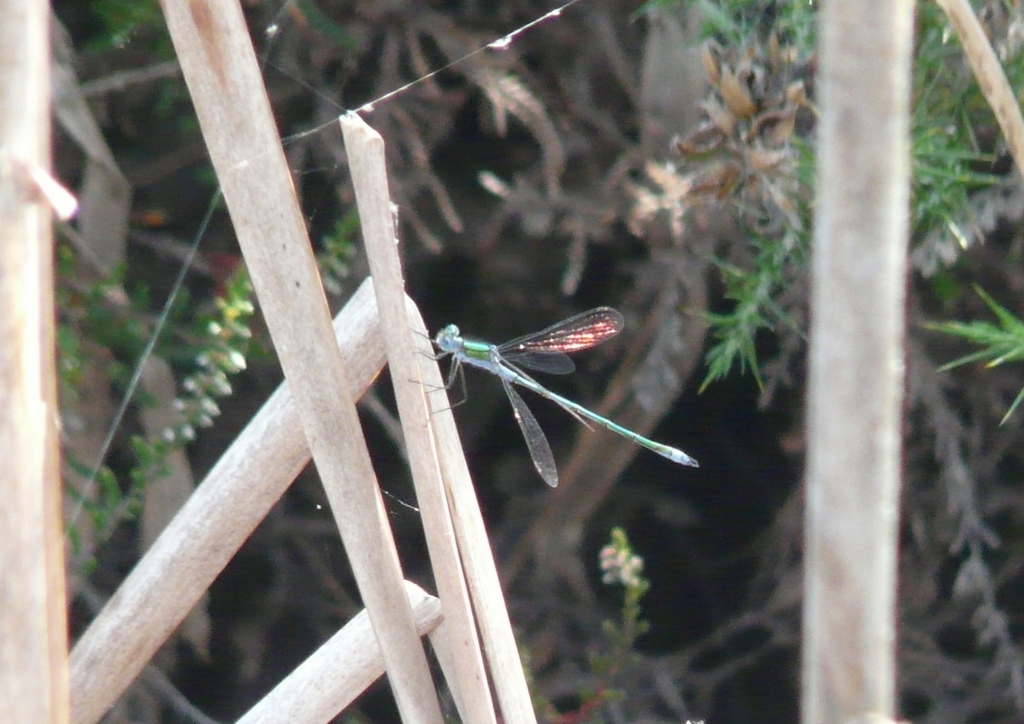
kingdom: Animalia
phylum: Arthropoda
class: Insecta
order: Odonata
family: Lestidae
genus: Lestes
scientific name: Lestes sponsa
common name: Common spreadwing
